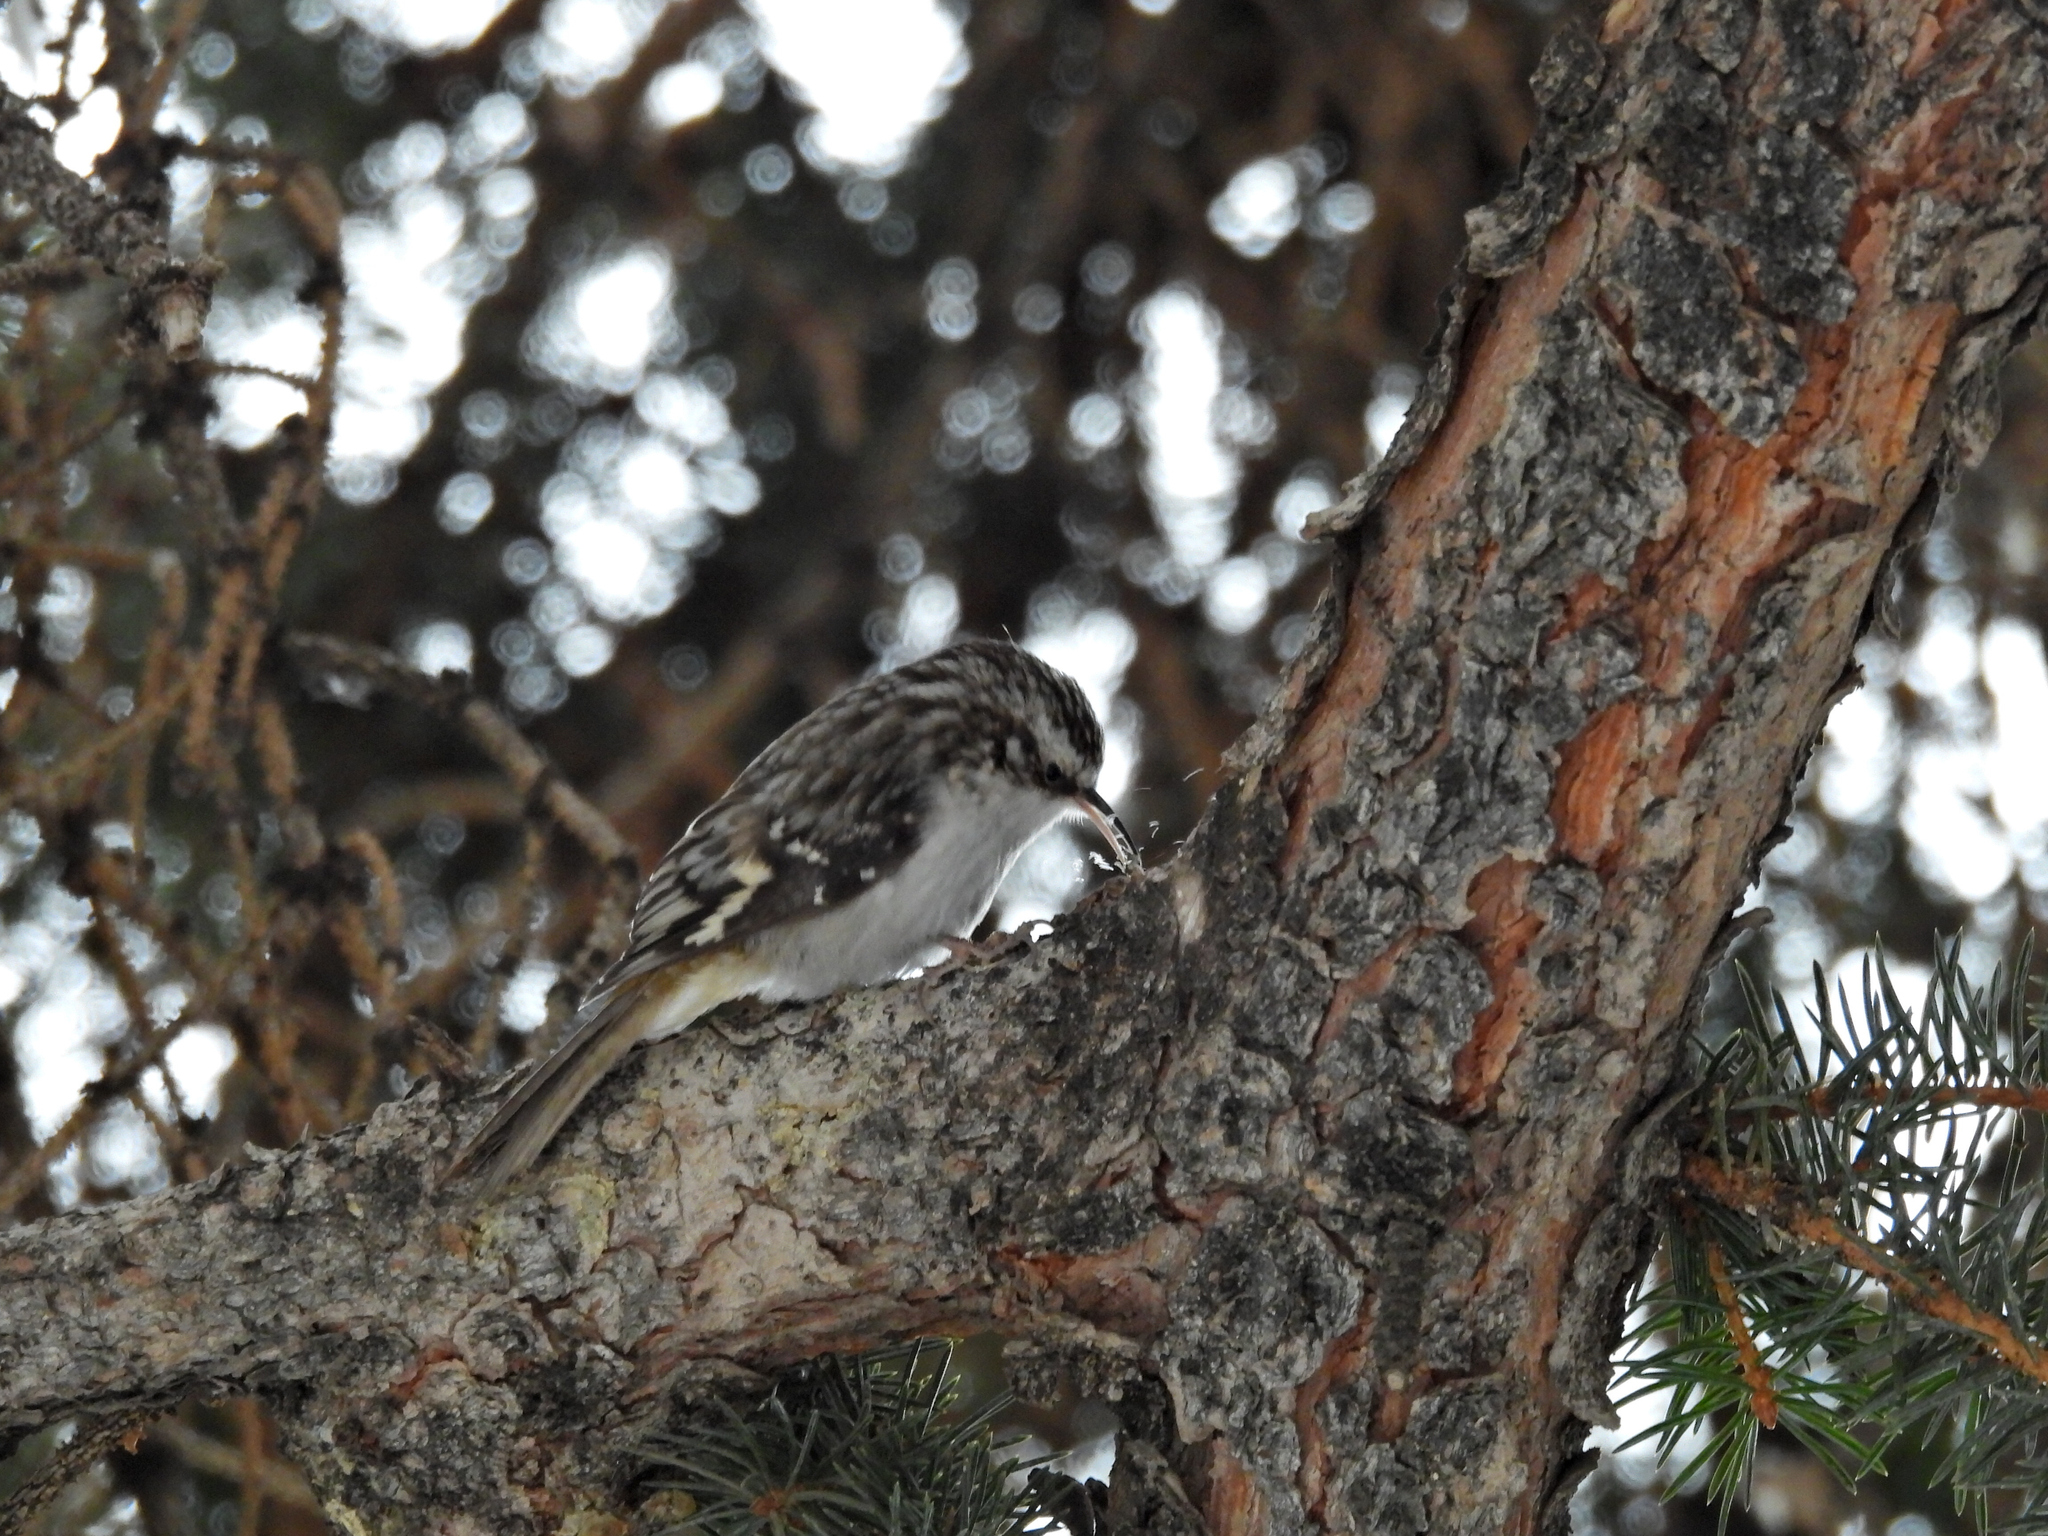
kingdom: Animalia
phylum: Chordata
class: Aves
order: Passeriformes
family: Certhiidae
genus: Certhia
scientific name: Certhia americana
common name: Brown creeper
